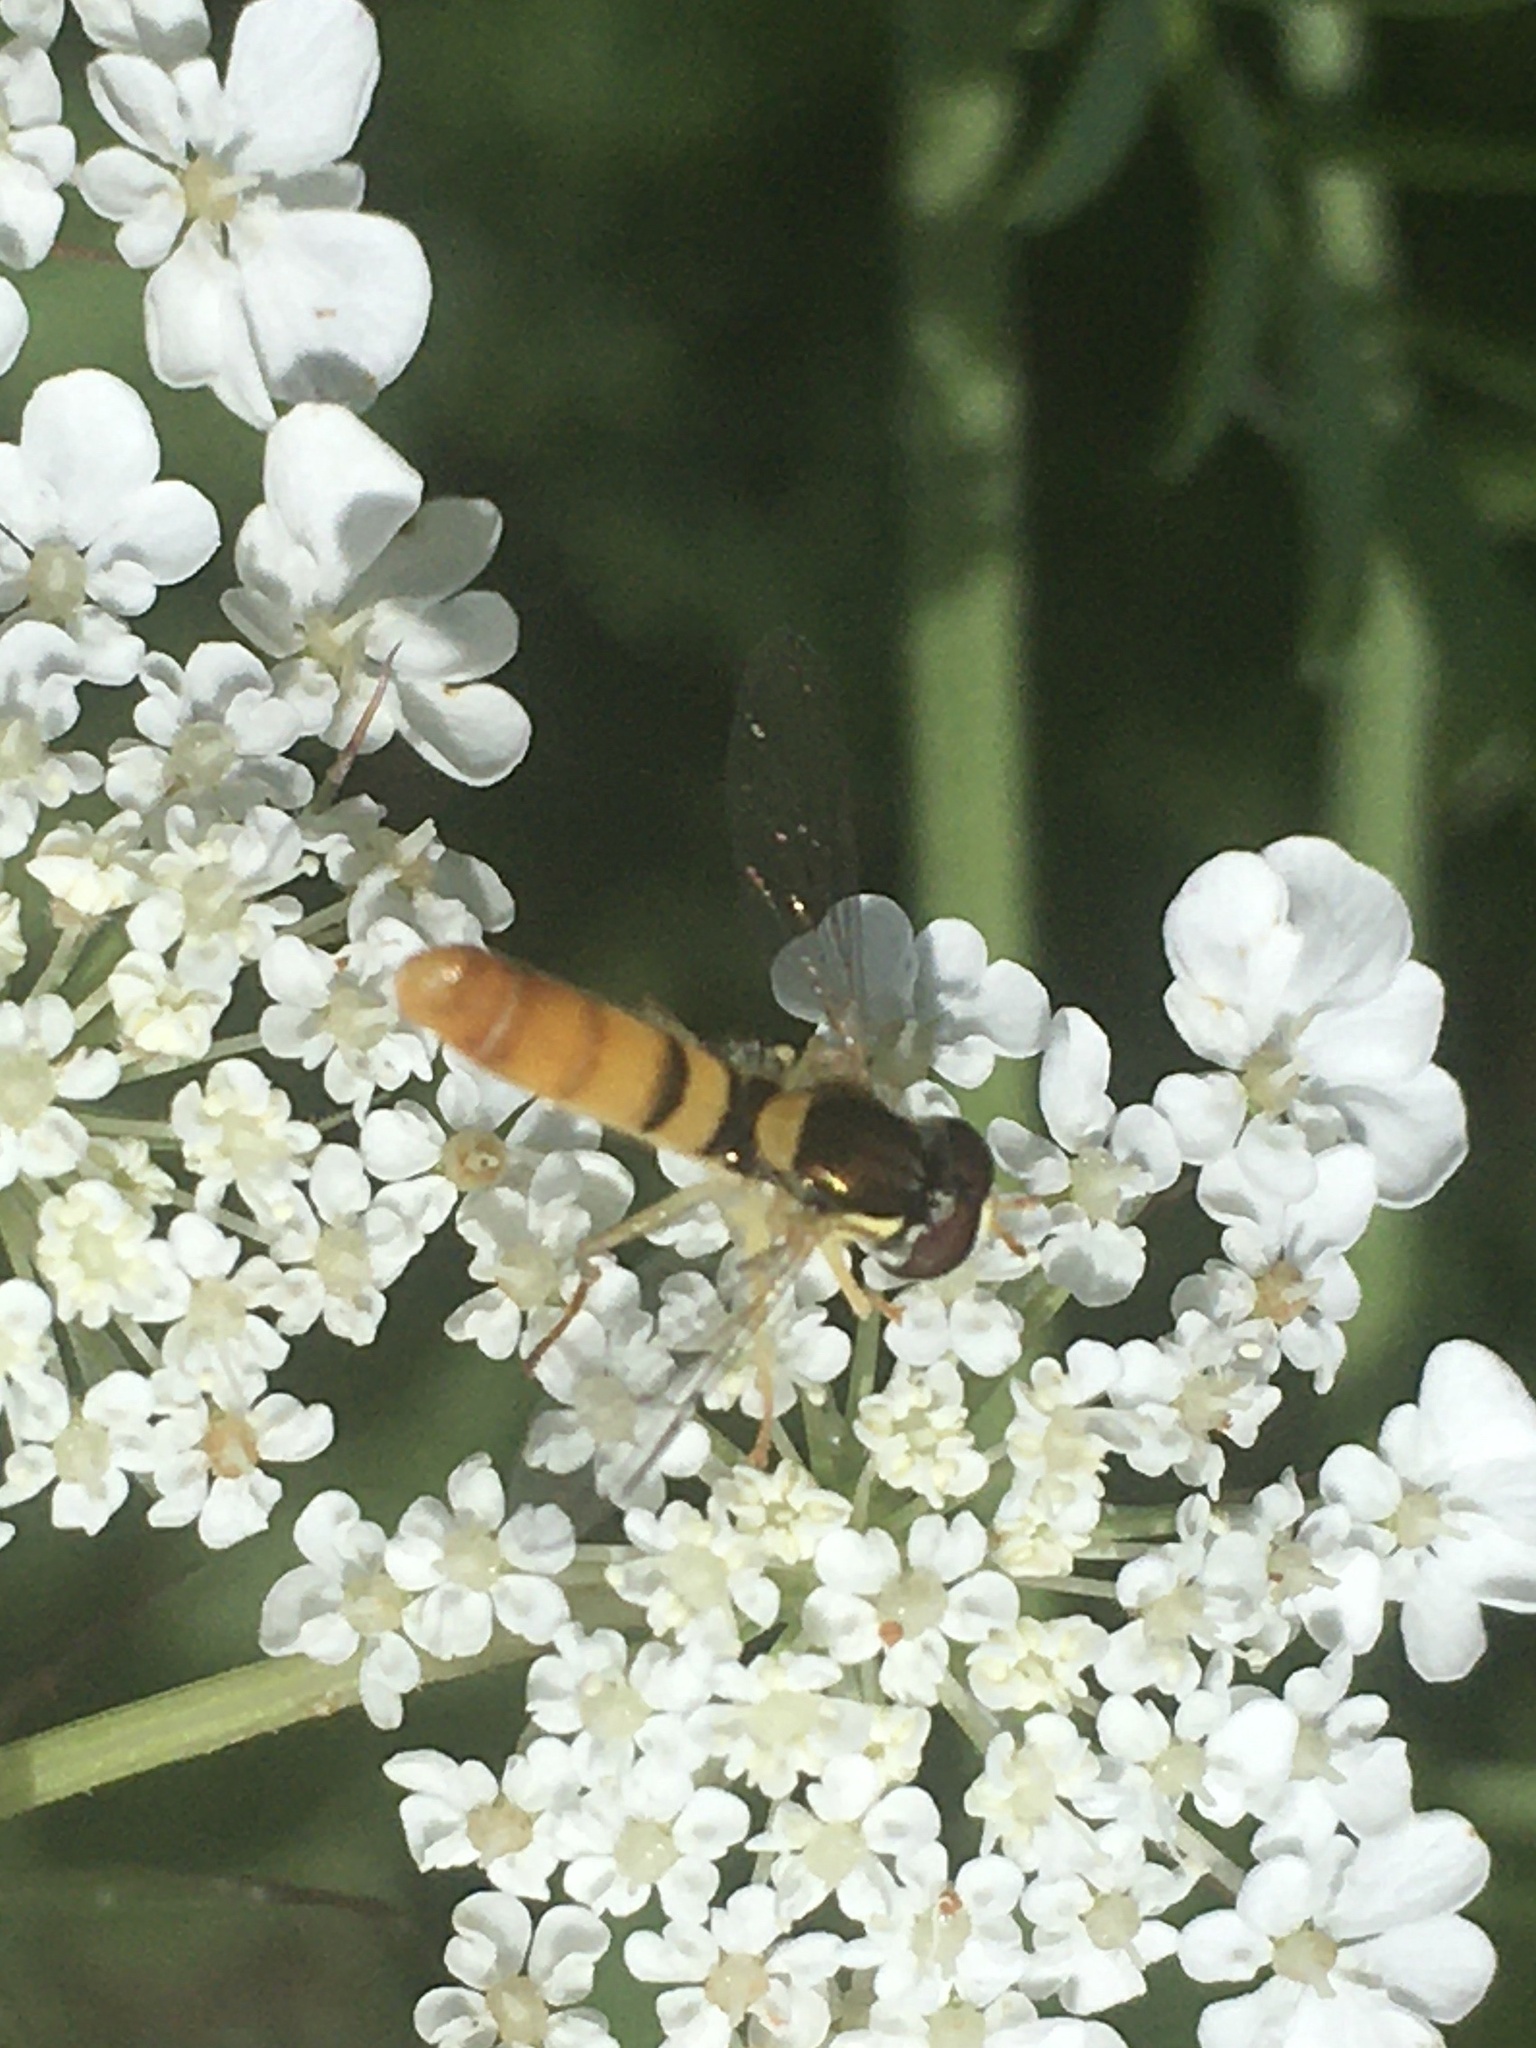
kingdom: Animalia
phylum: Arthropoda
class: Insecta
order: Diptera
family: Syrphidae
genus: Sphaerophoria
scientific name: Sphaerophoria contigua
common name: Tufted globetail
